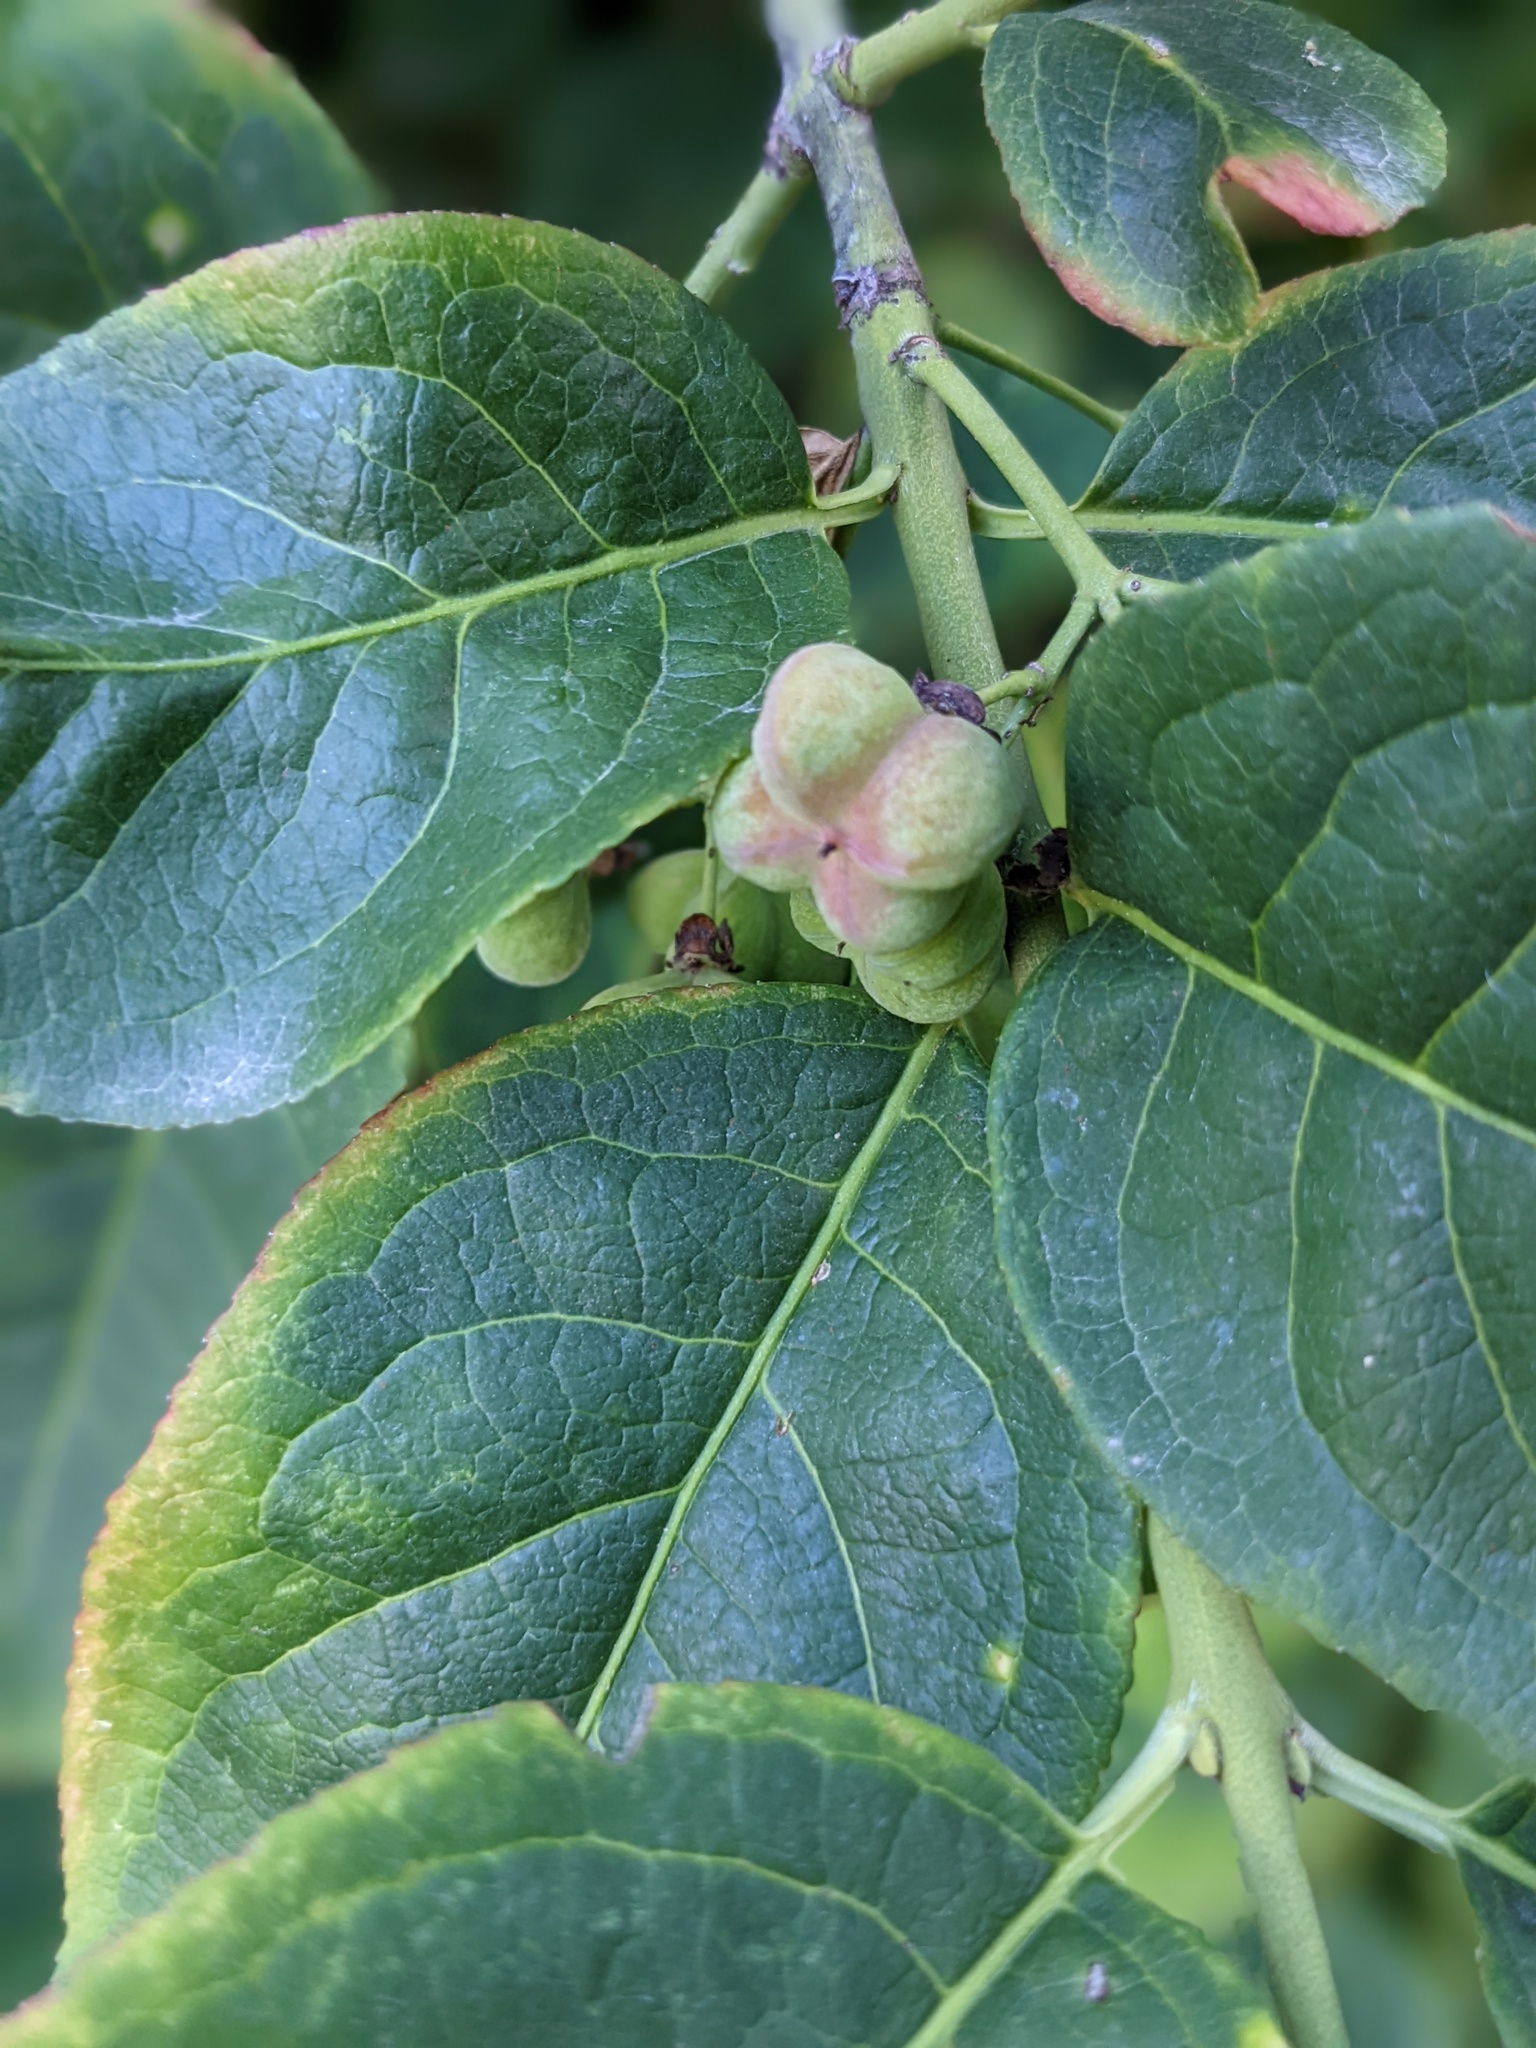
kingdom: Plantae
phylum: Tracheophyta
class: Magnoliopsida
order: Celastrales
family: Celastraceae
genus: Euonymus
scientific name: Euonymus europaeus
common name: Spindle
